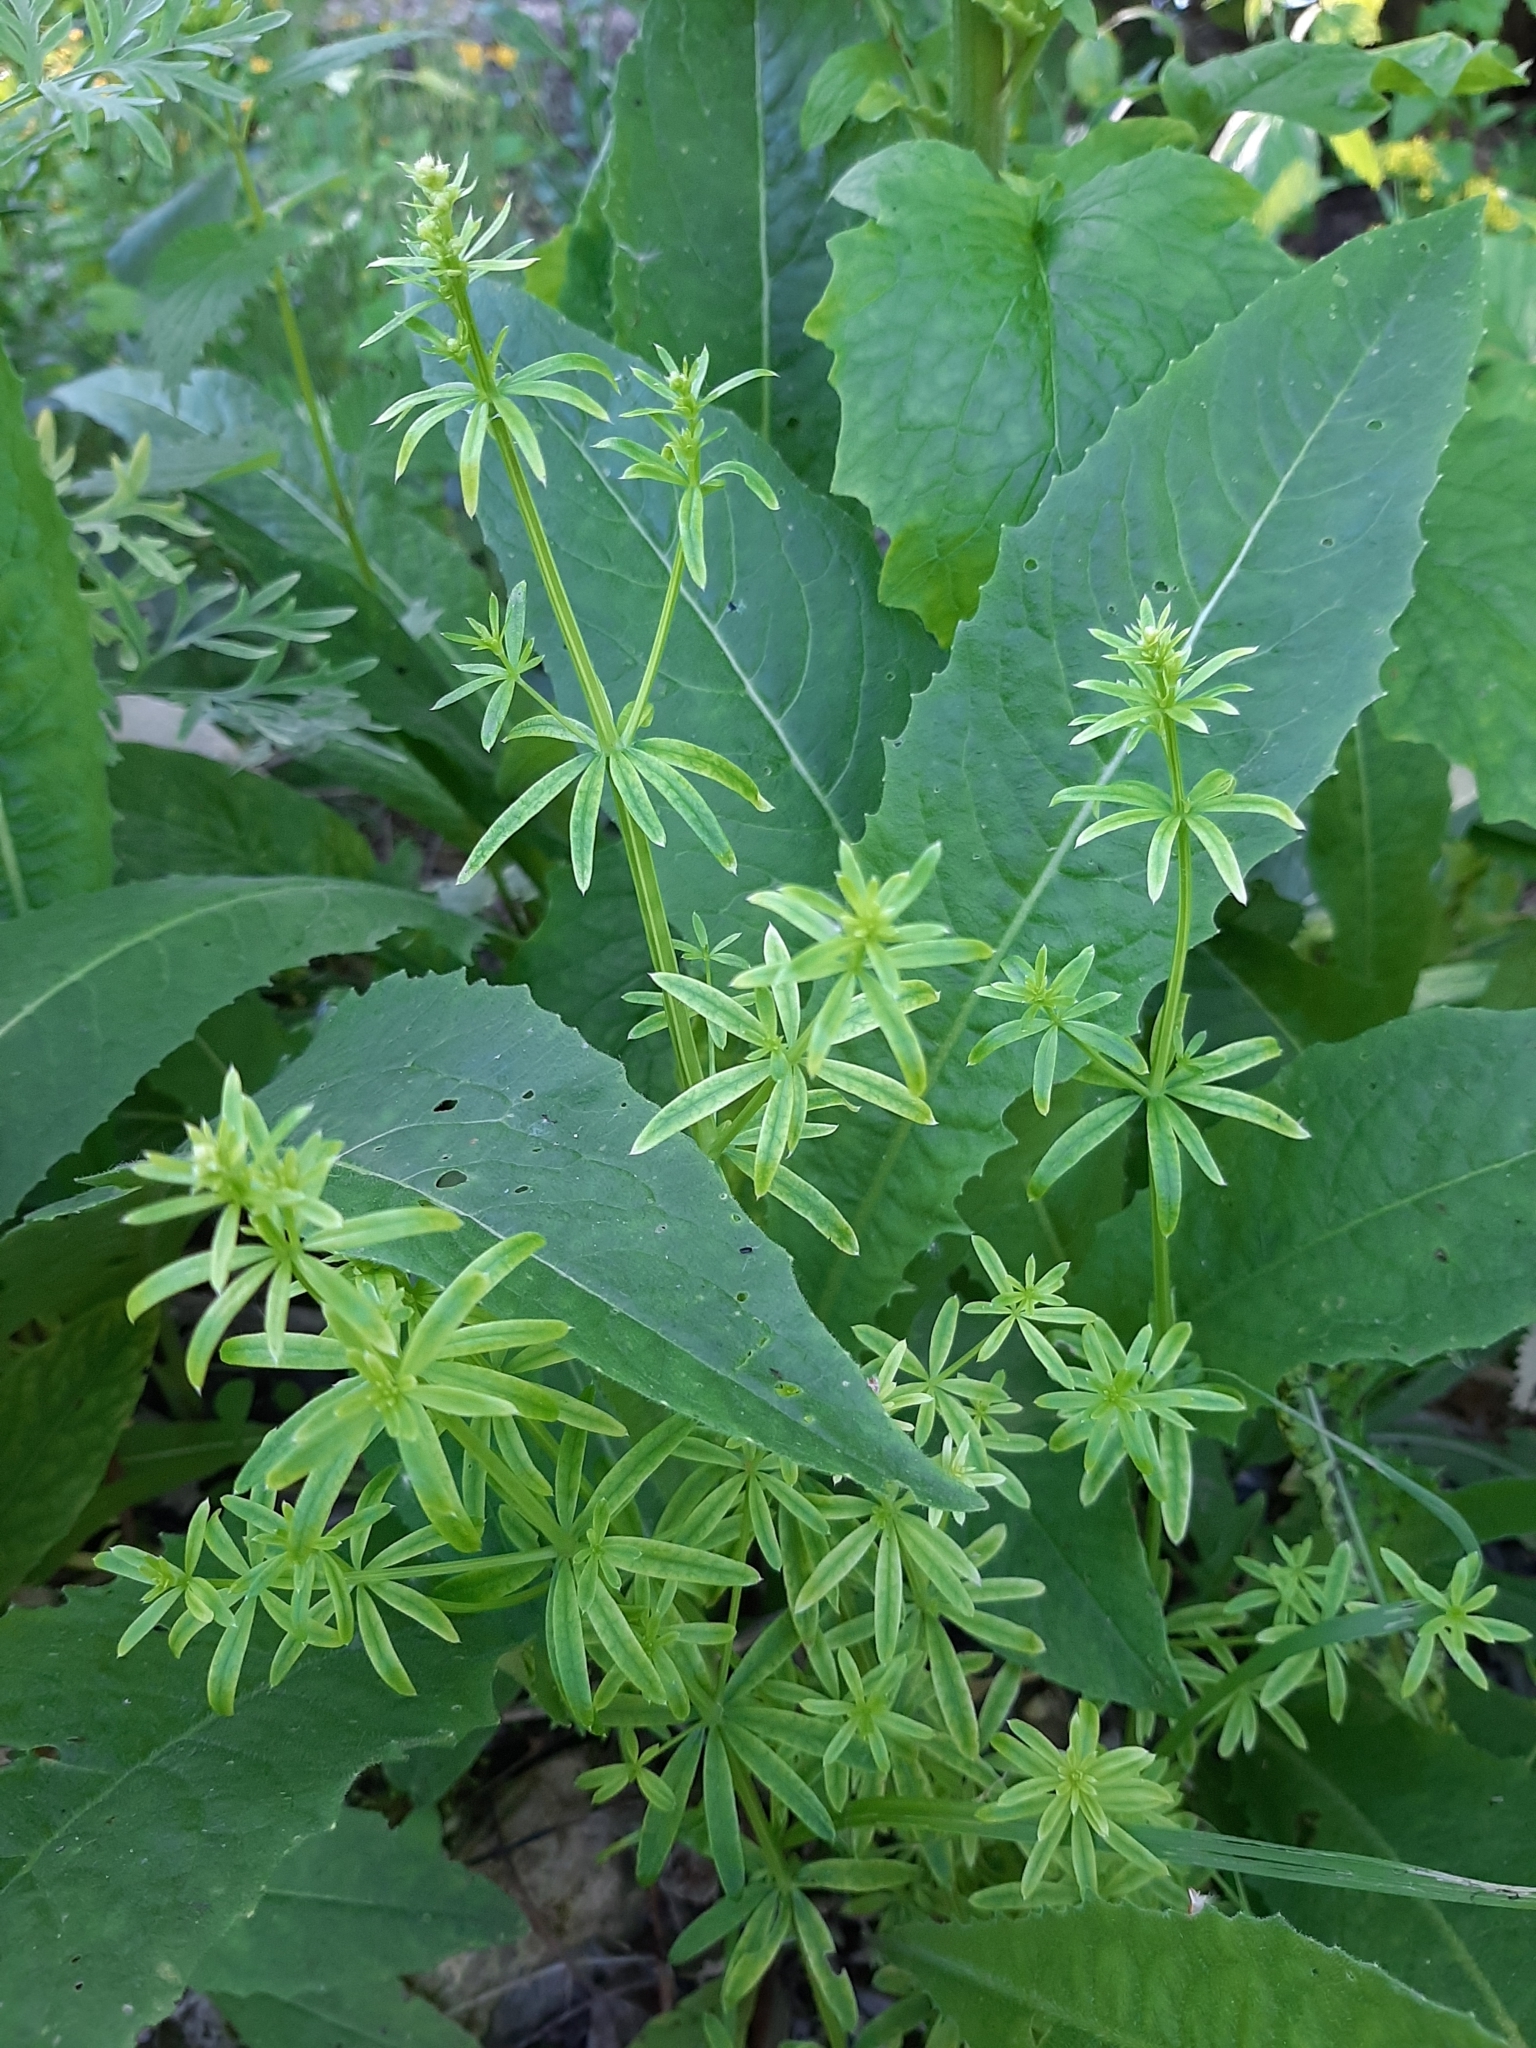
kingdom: Plantae
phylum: Tracheophyta
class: Magnoliopsida
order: Gentianales
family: Rubiaceae
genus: Galium
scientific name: Galium mollugo
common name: Hedge bedstraw
